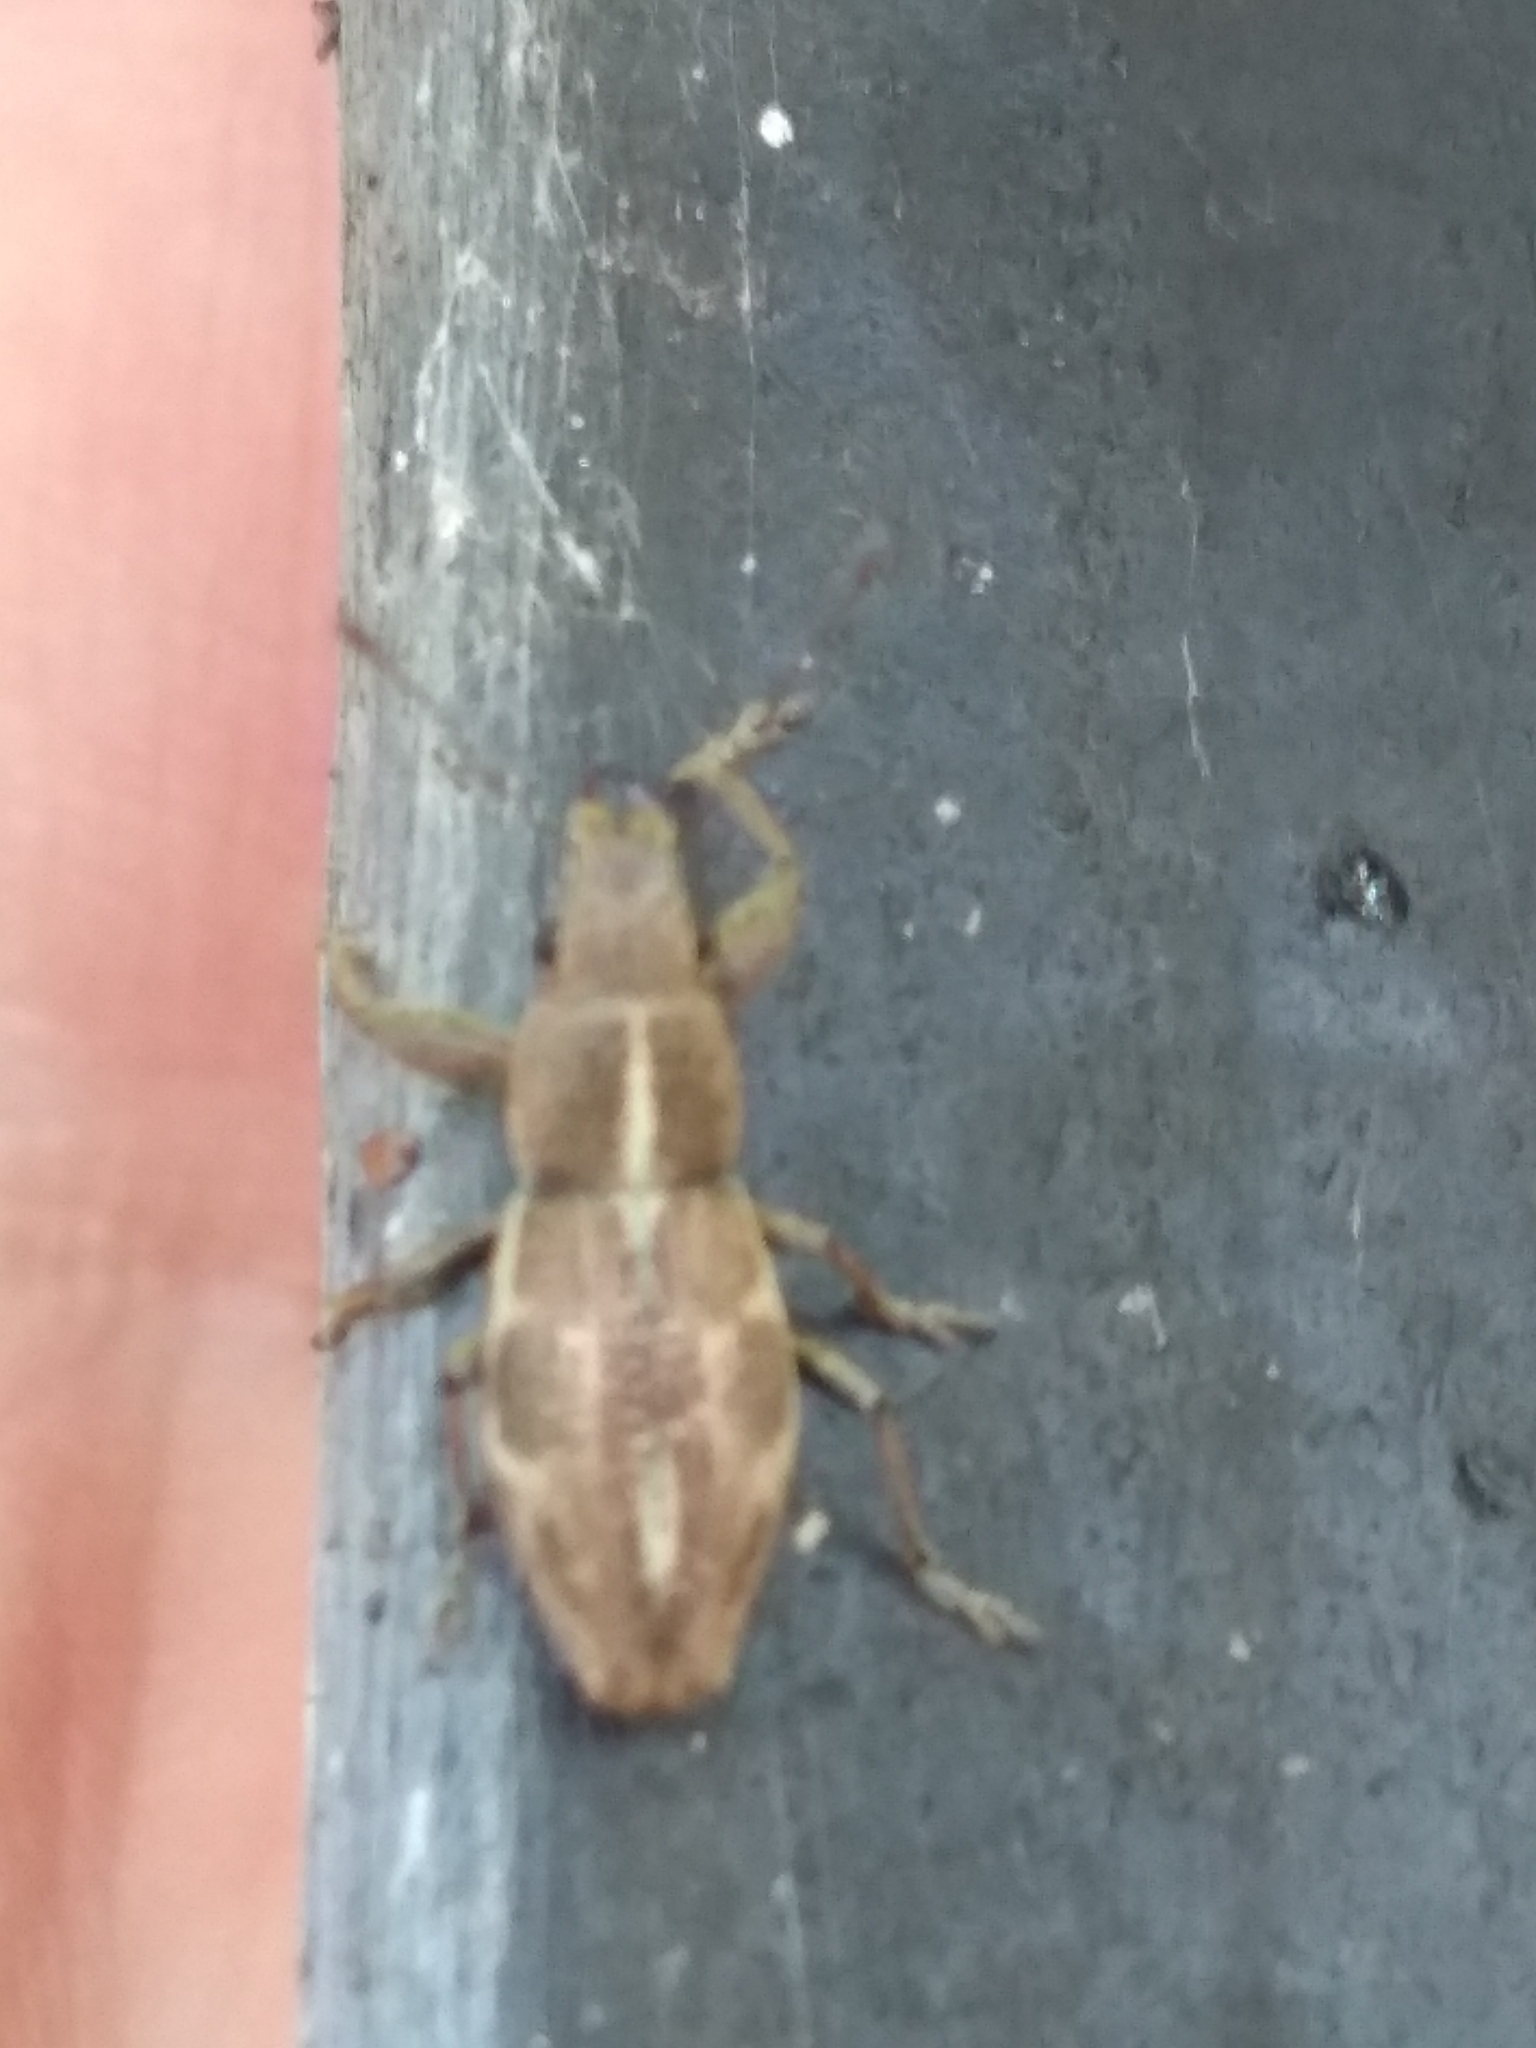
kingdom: Animalia
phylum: Arthropoda
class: Insecta
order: Coleoptera
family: Curculionidae
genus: Naupactus
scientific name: Naupactus dissimulator
